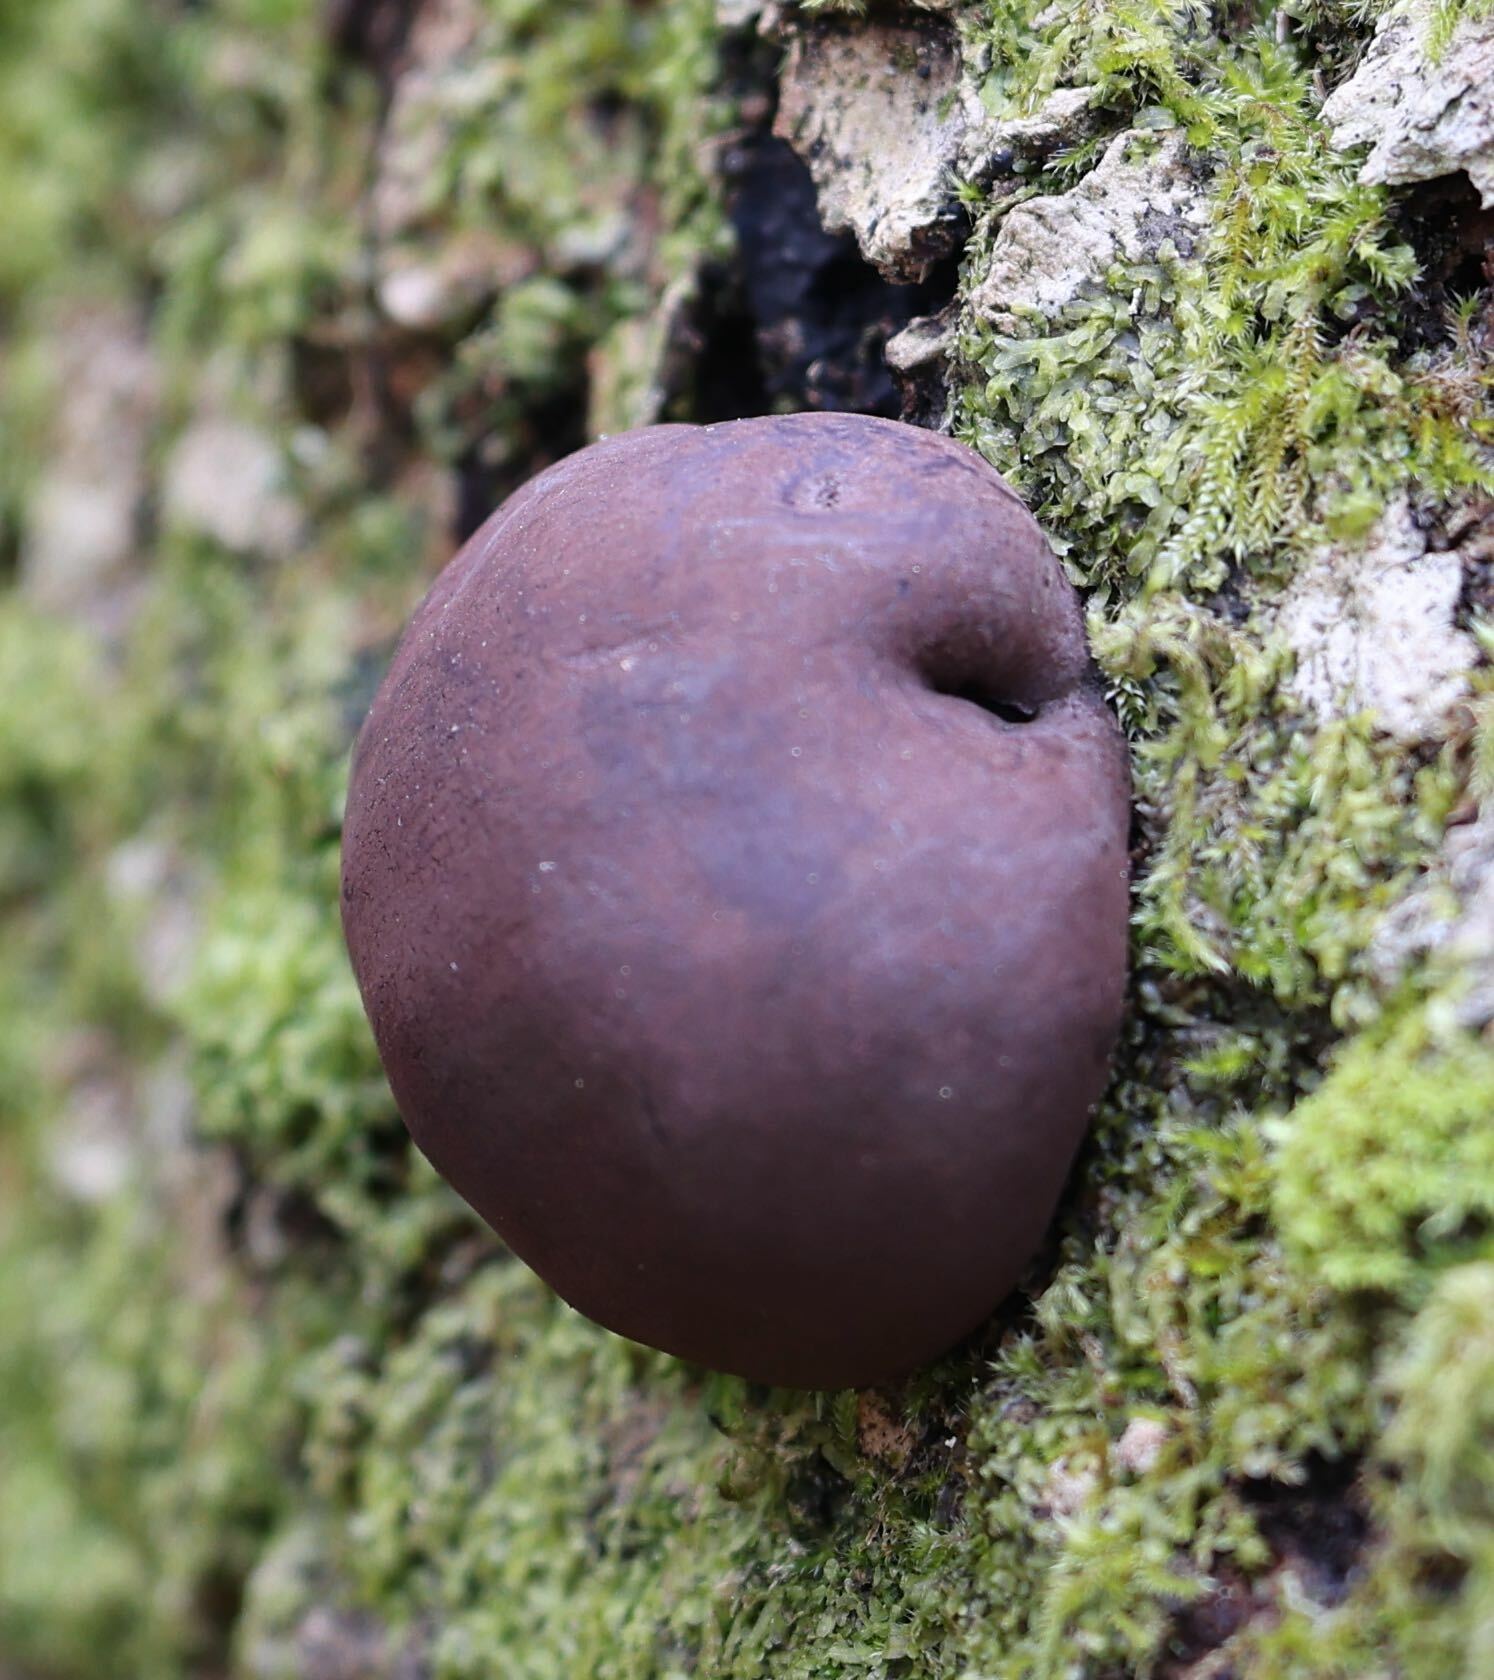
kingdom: Fungi
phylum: Ascomycota
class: Sordariomycetes
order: Xylariales
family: Hypoxylaceae
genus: Daldinia
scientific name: Daldinia concentrica
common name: Cramp balls
